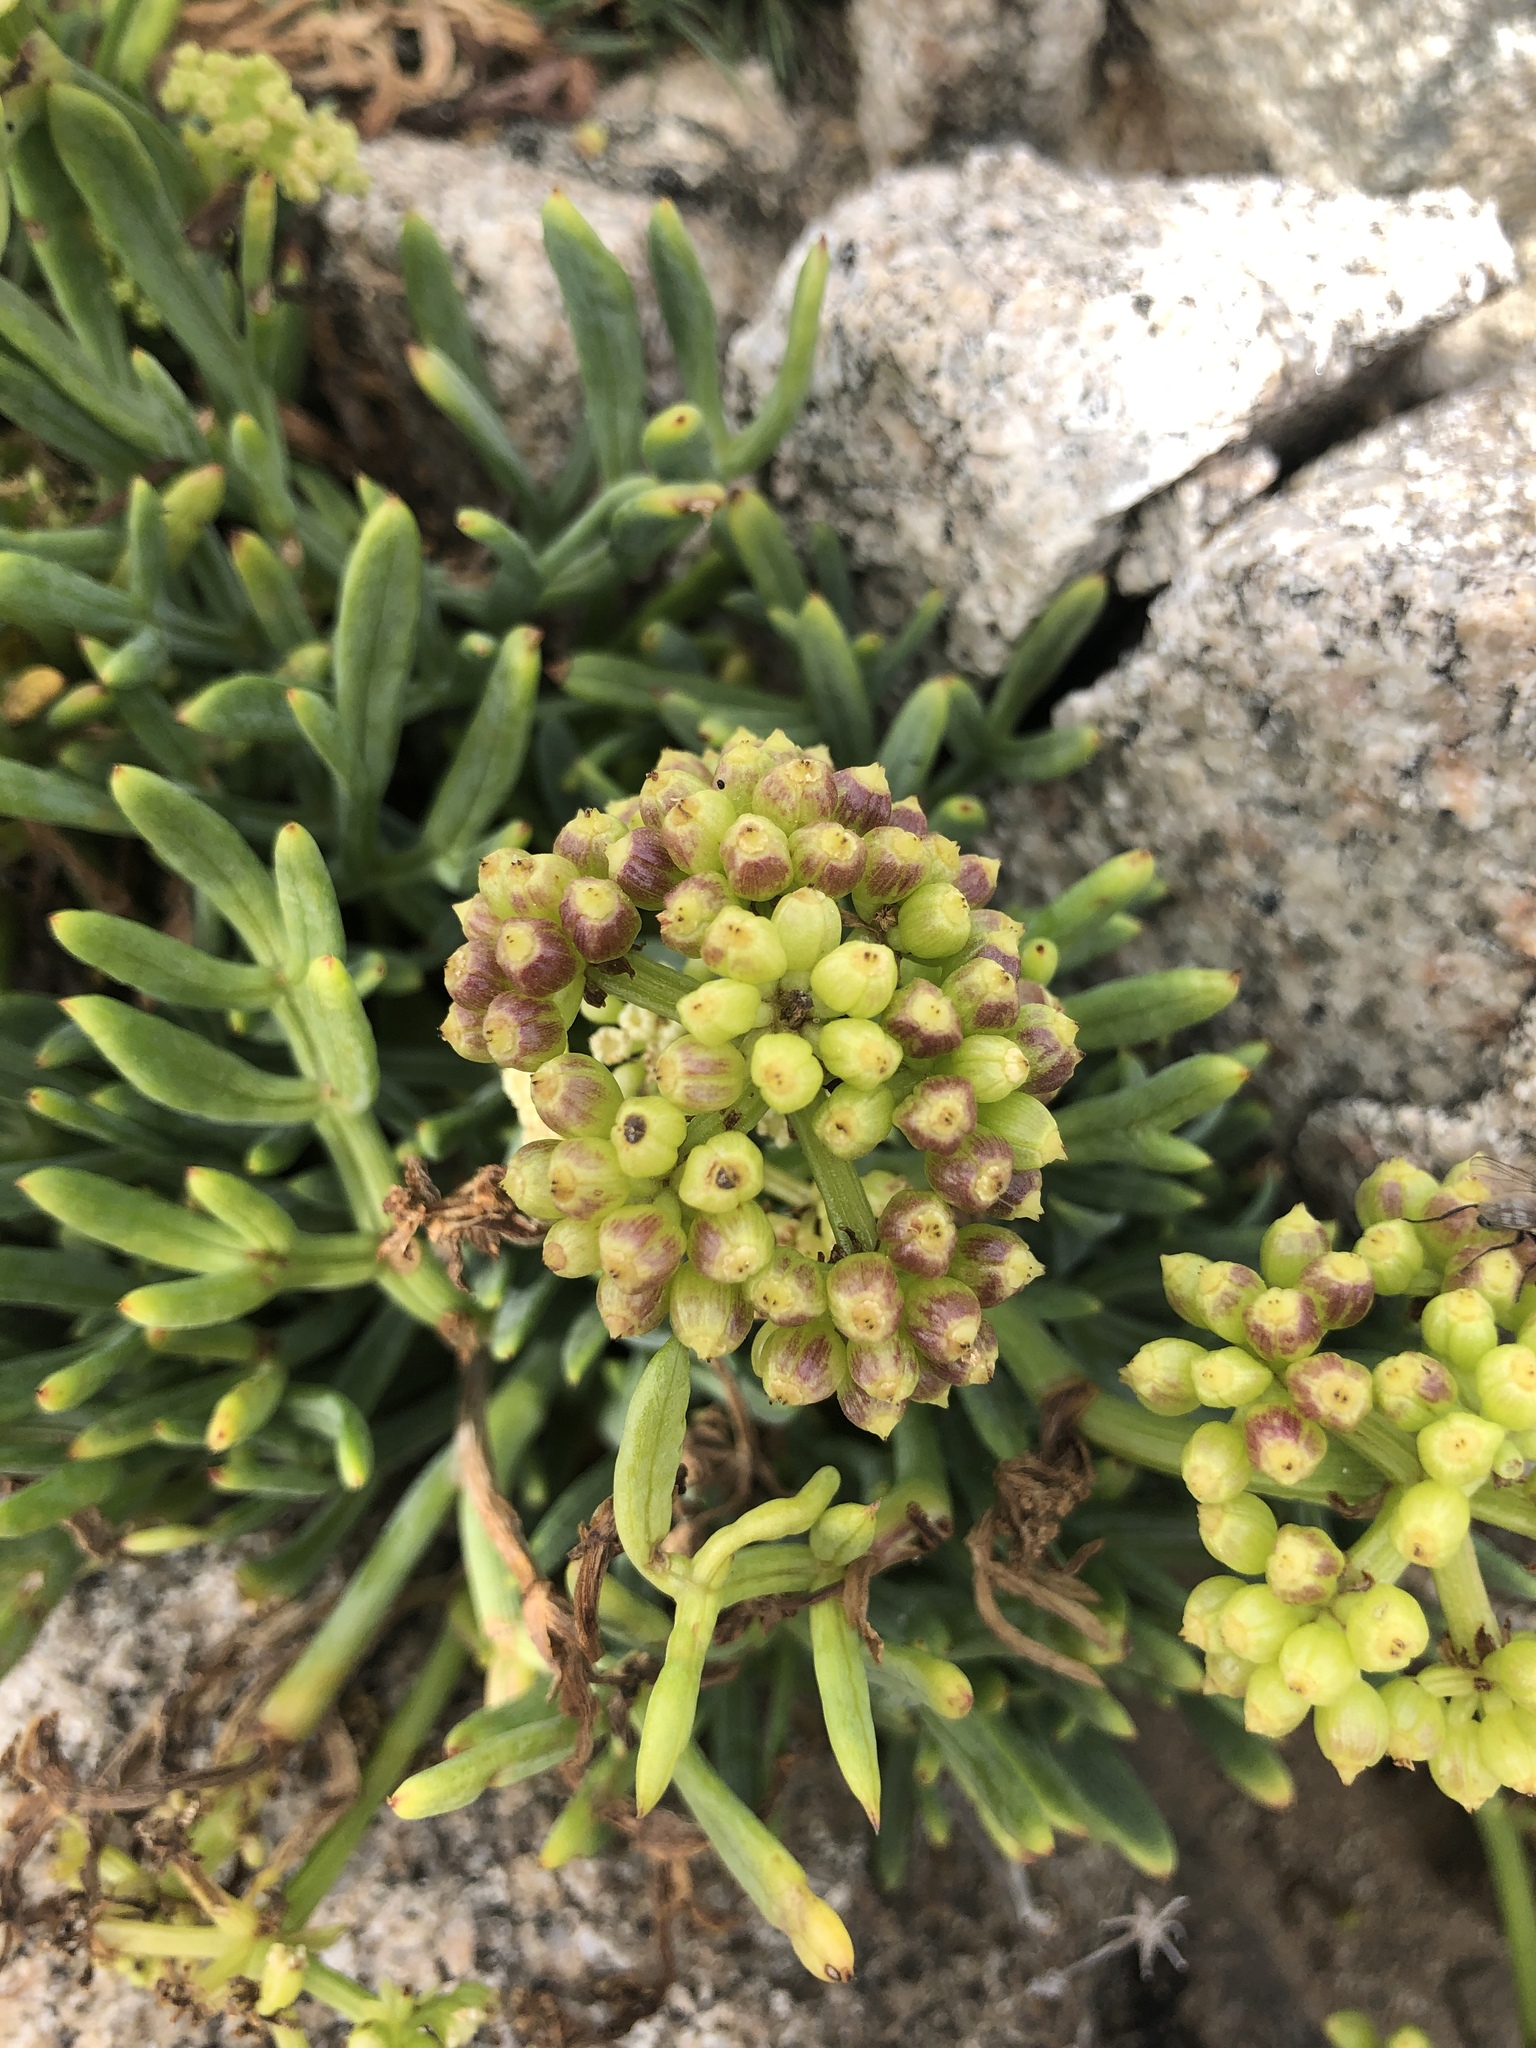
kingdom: Plantae
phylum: Tracheophyta
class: Magnoliopsida
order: Apiales
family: Apiaceae
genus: Crithmum
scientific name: Crithmum maritimum
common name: Rock samphire
